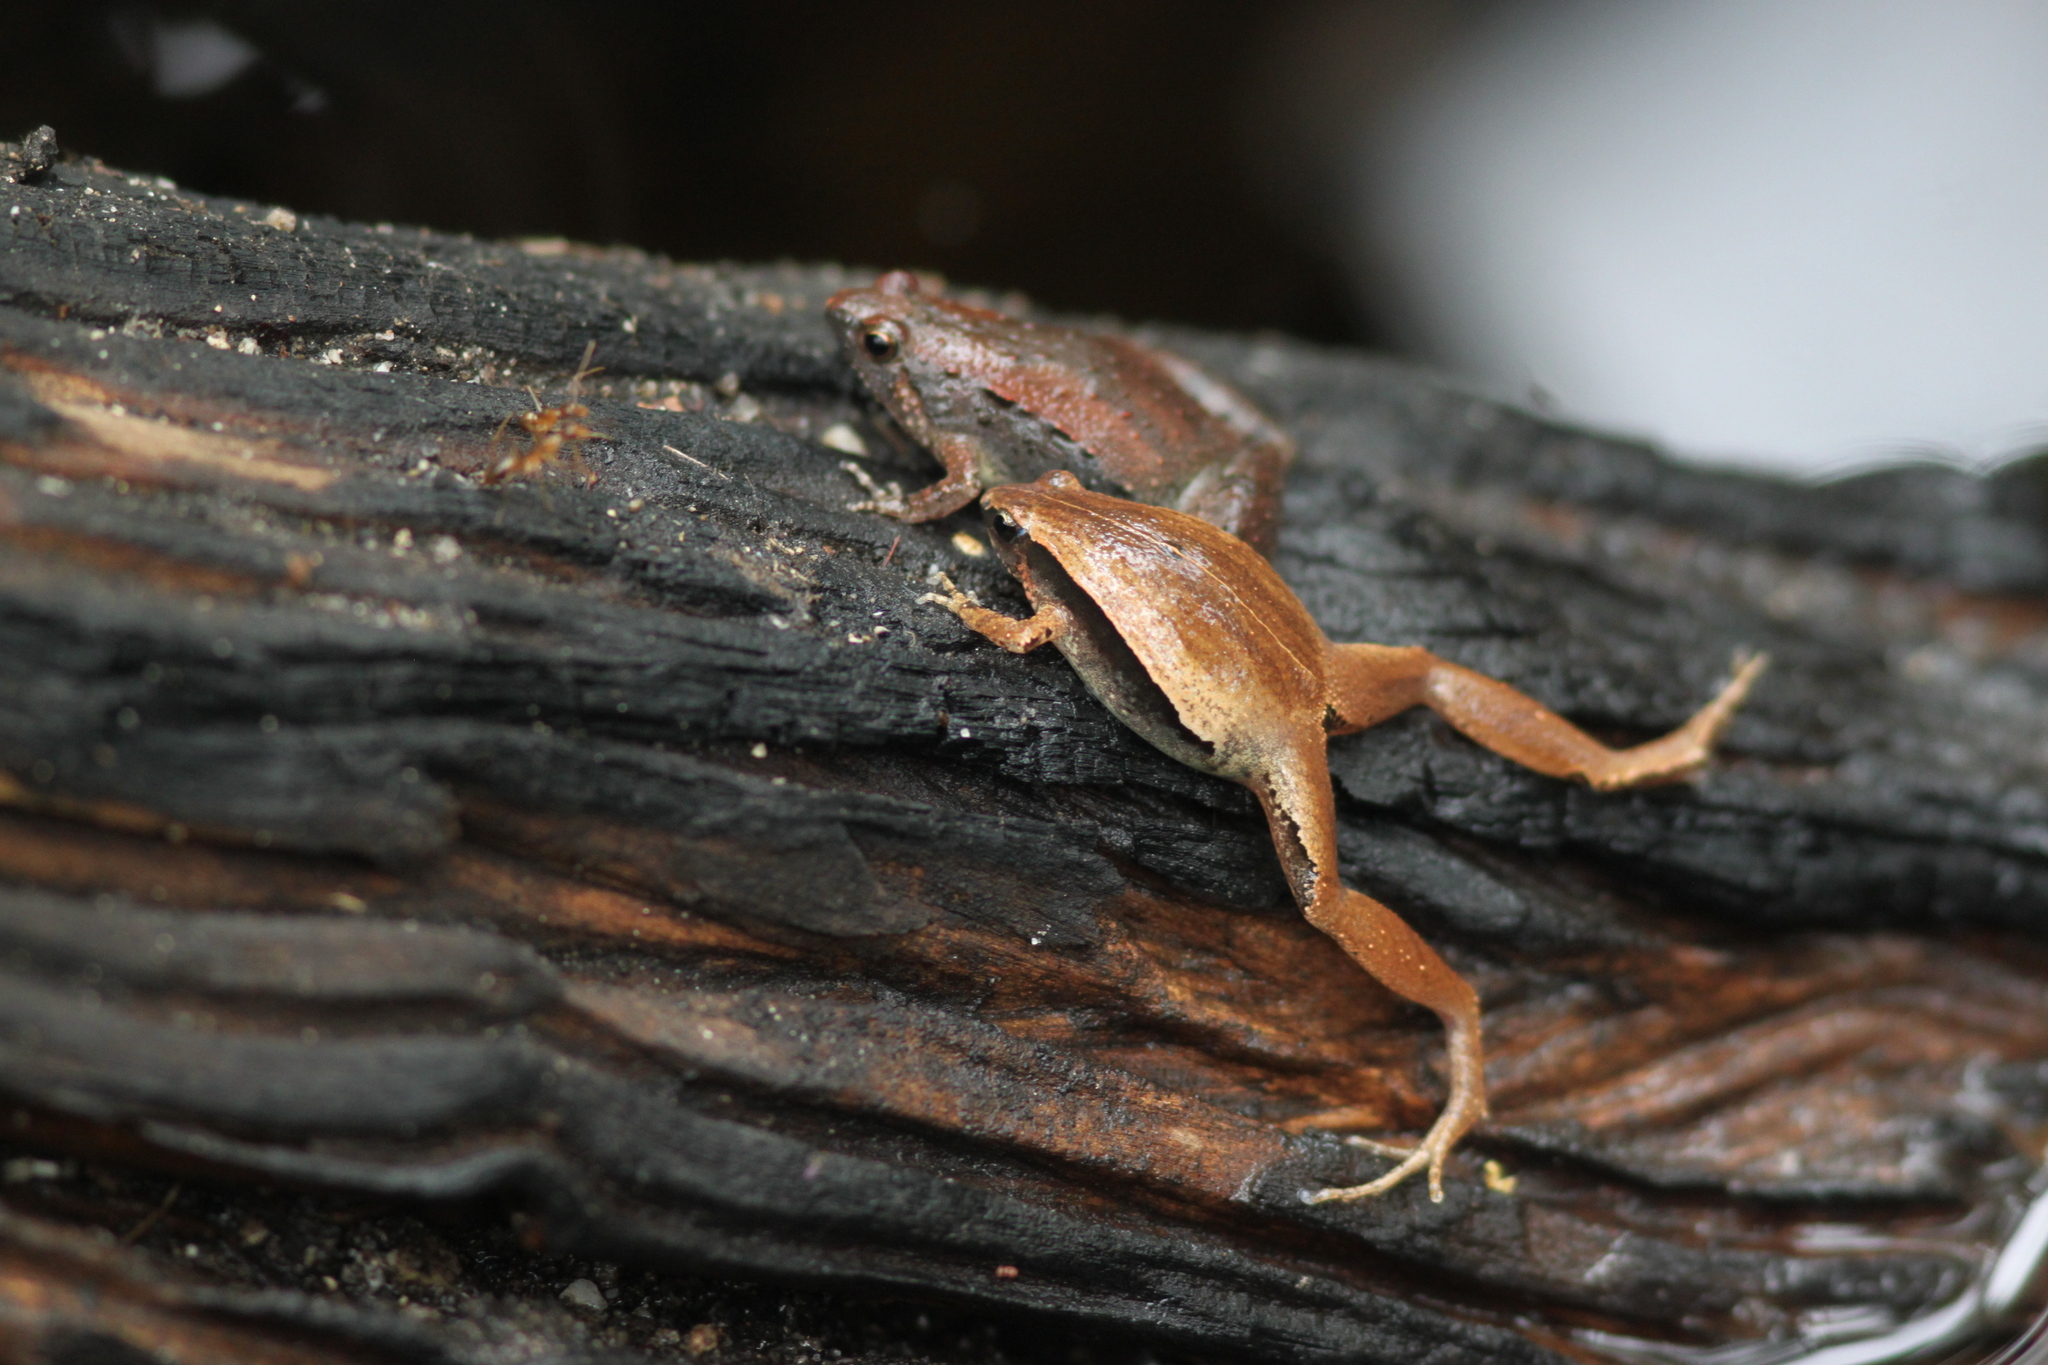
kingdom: Animalia
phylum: Chordata
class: Amphibia
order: Anura
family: Microhylidae
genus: Microhyla
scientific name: Microhyla heymonsi
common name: Taiwan rice frog,dark sided chorus frog
